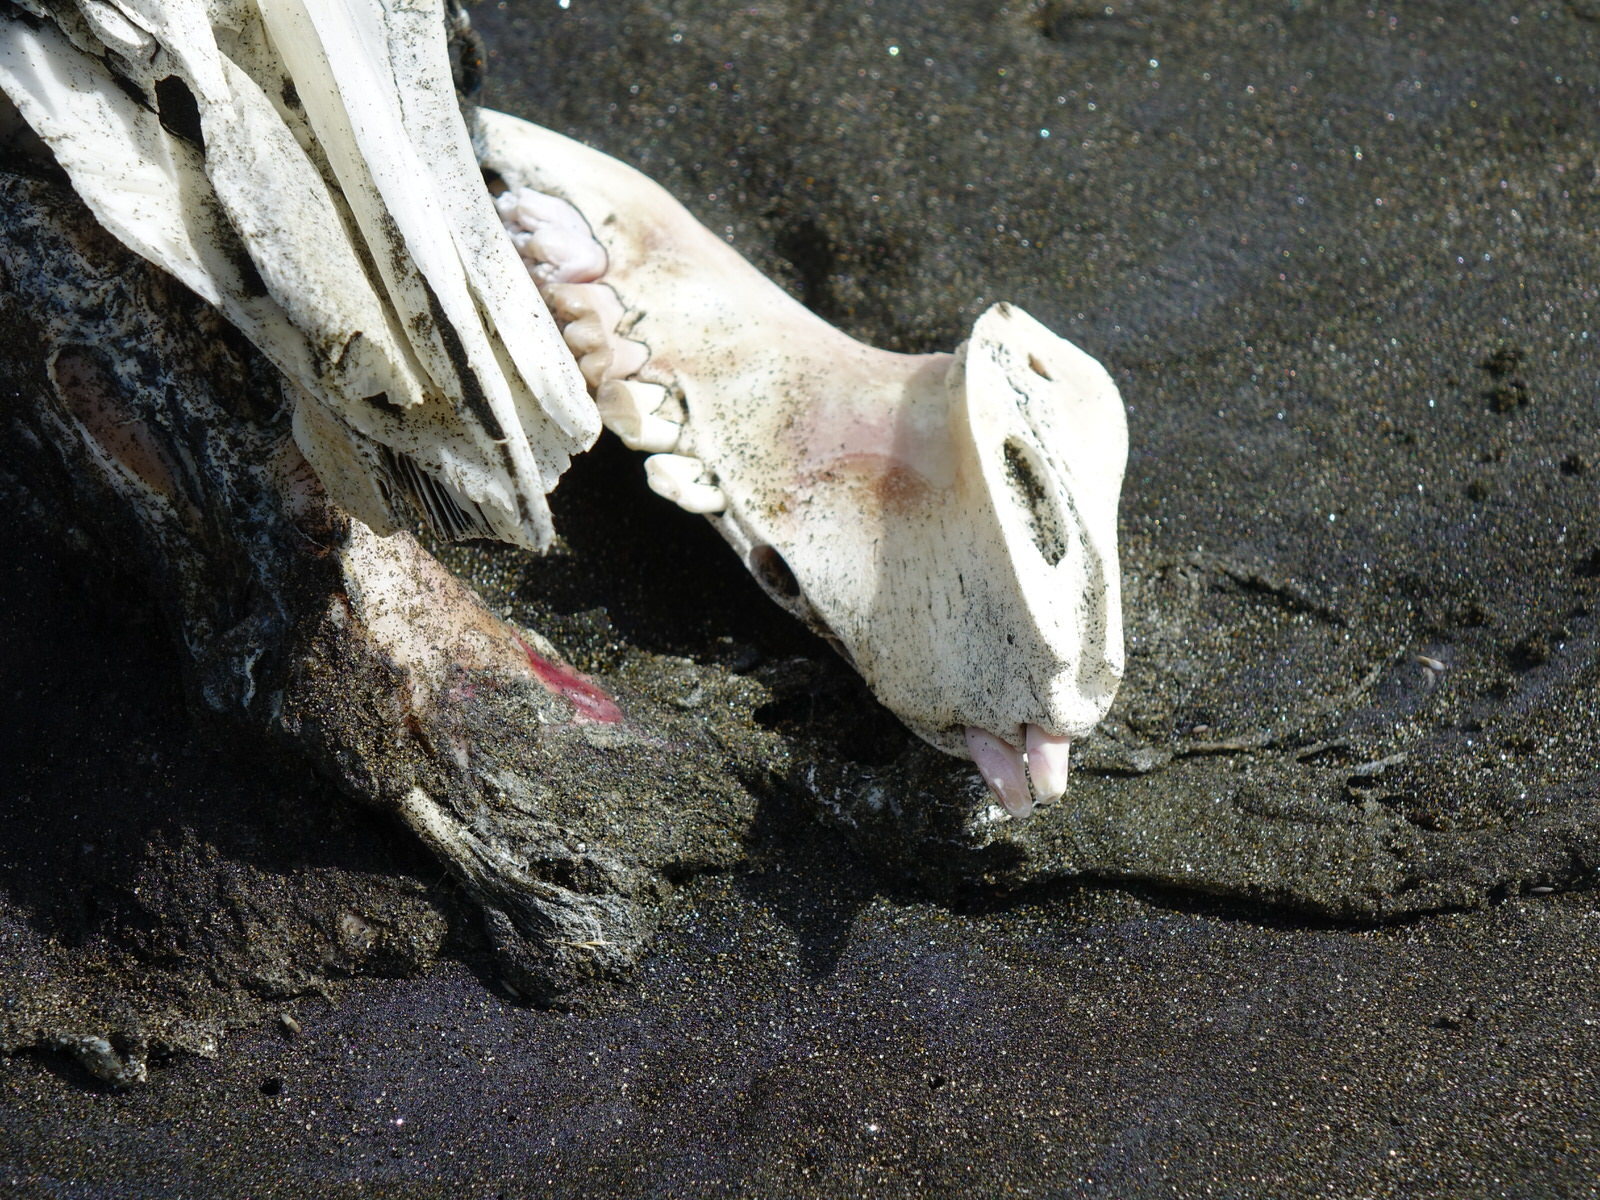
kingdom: Animalia
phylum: Chordata
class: Mammalia
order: Artiodactyla
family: Suidae
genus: Sus
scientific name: Sus scrofa
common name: Wild boar
